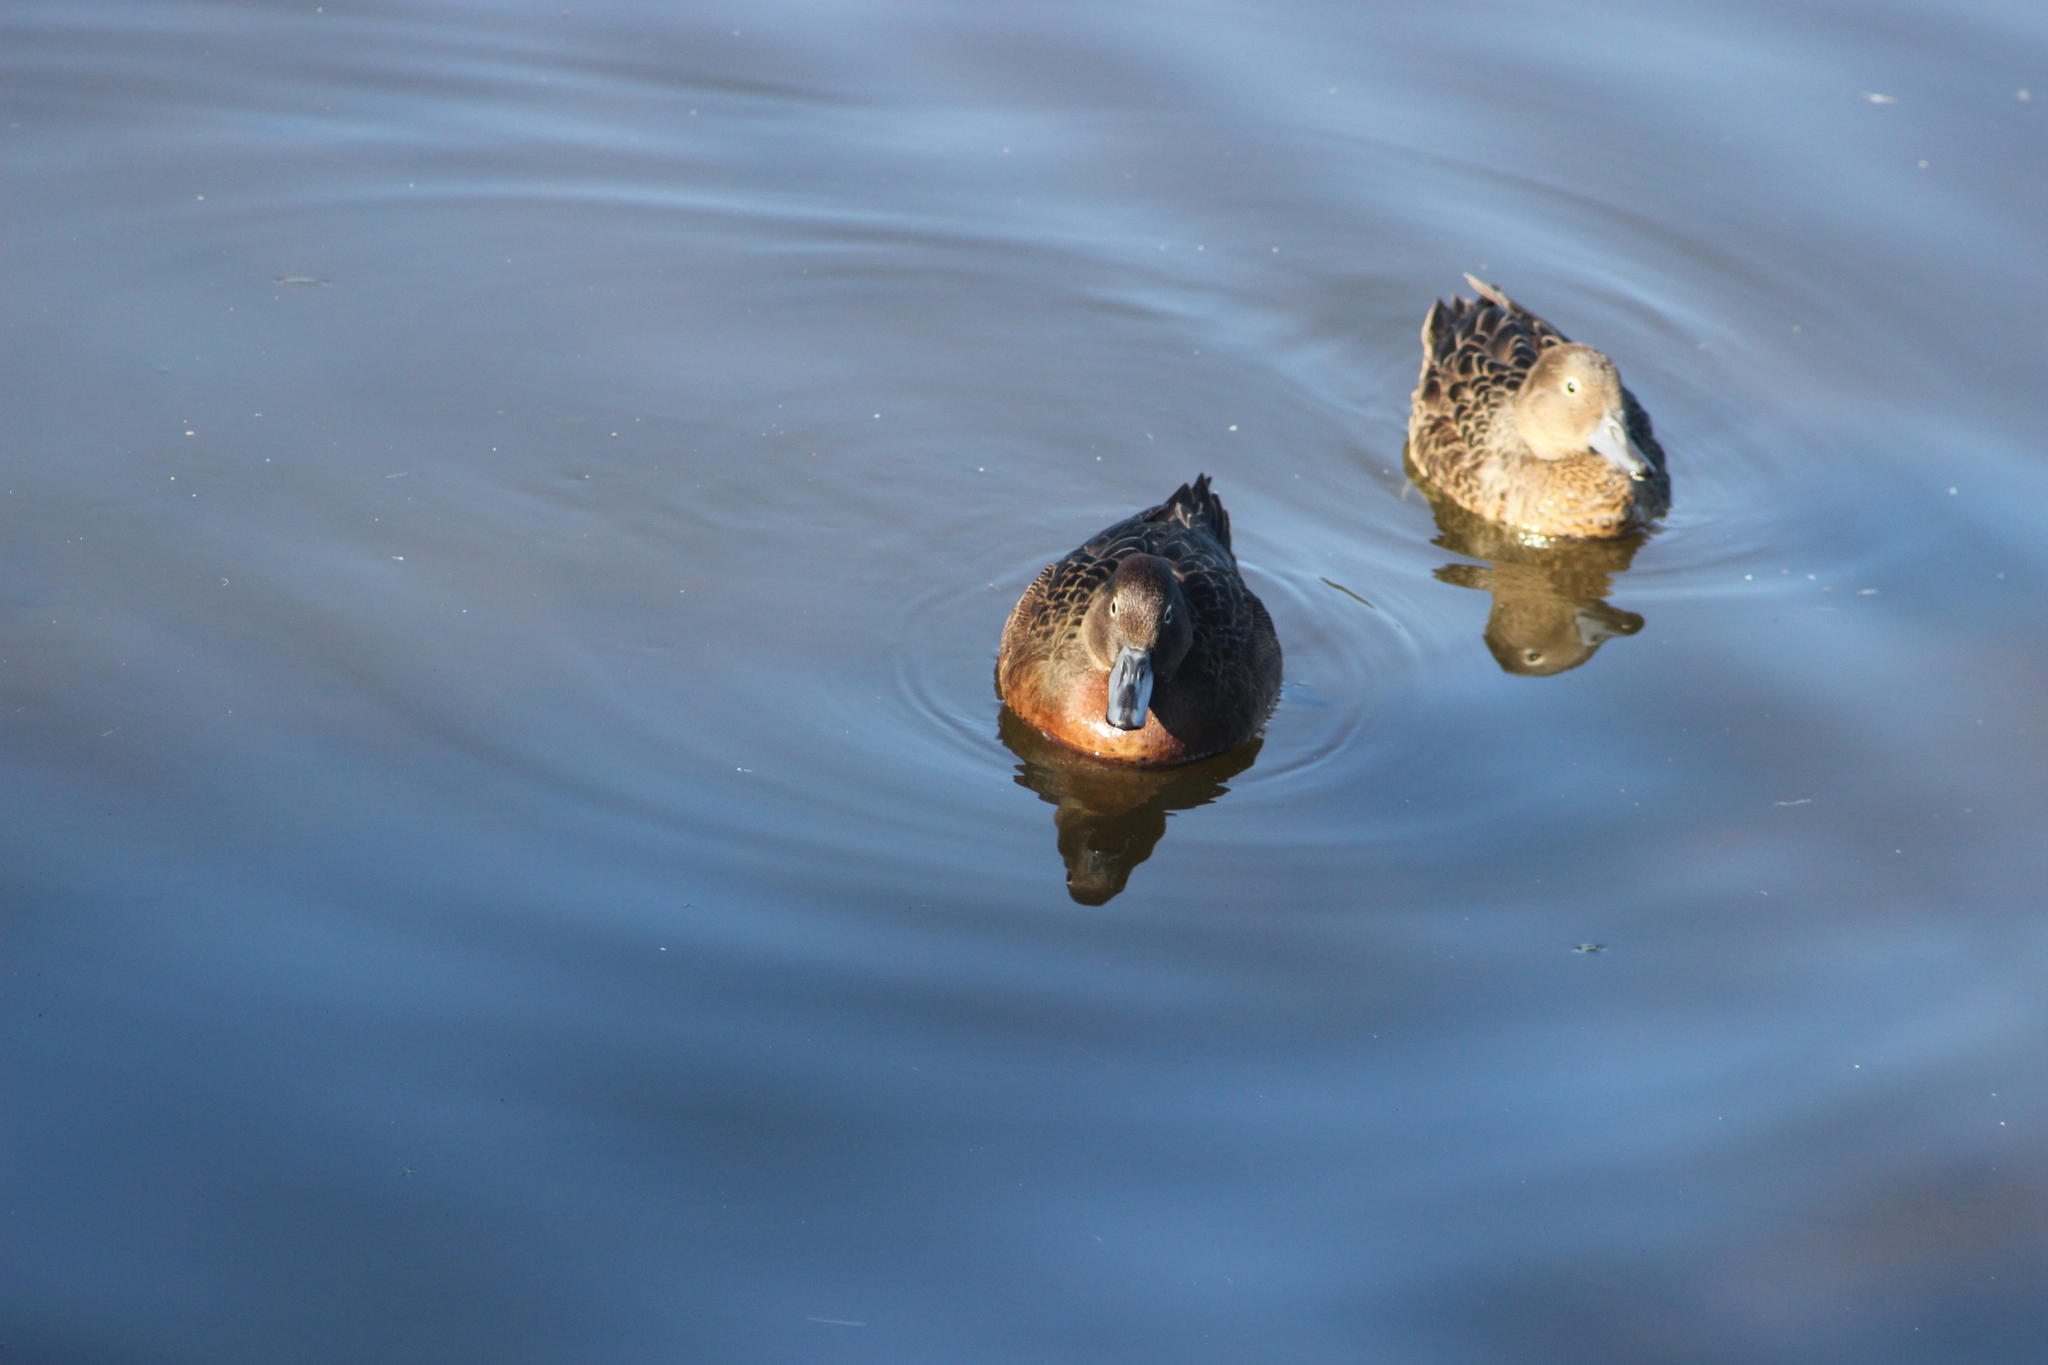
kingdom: Animalia
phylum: Chordata
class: Aves
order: Anseriformes
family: Anatidae
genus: Anas
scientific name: Anas chlorotis
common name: Brown teal
